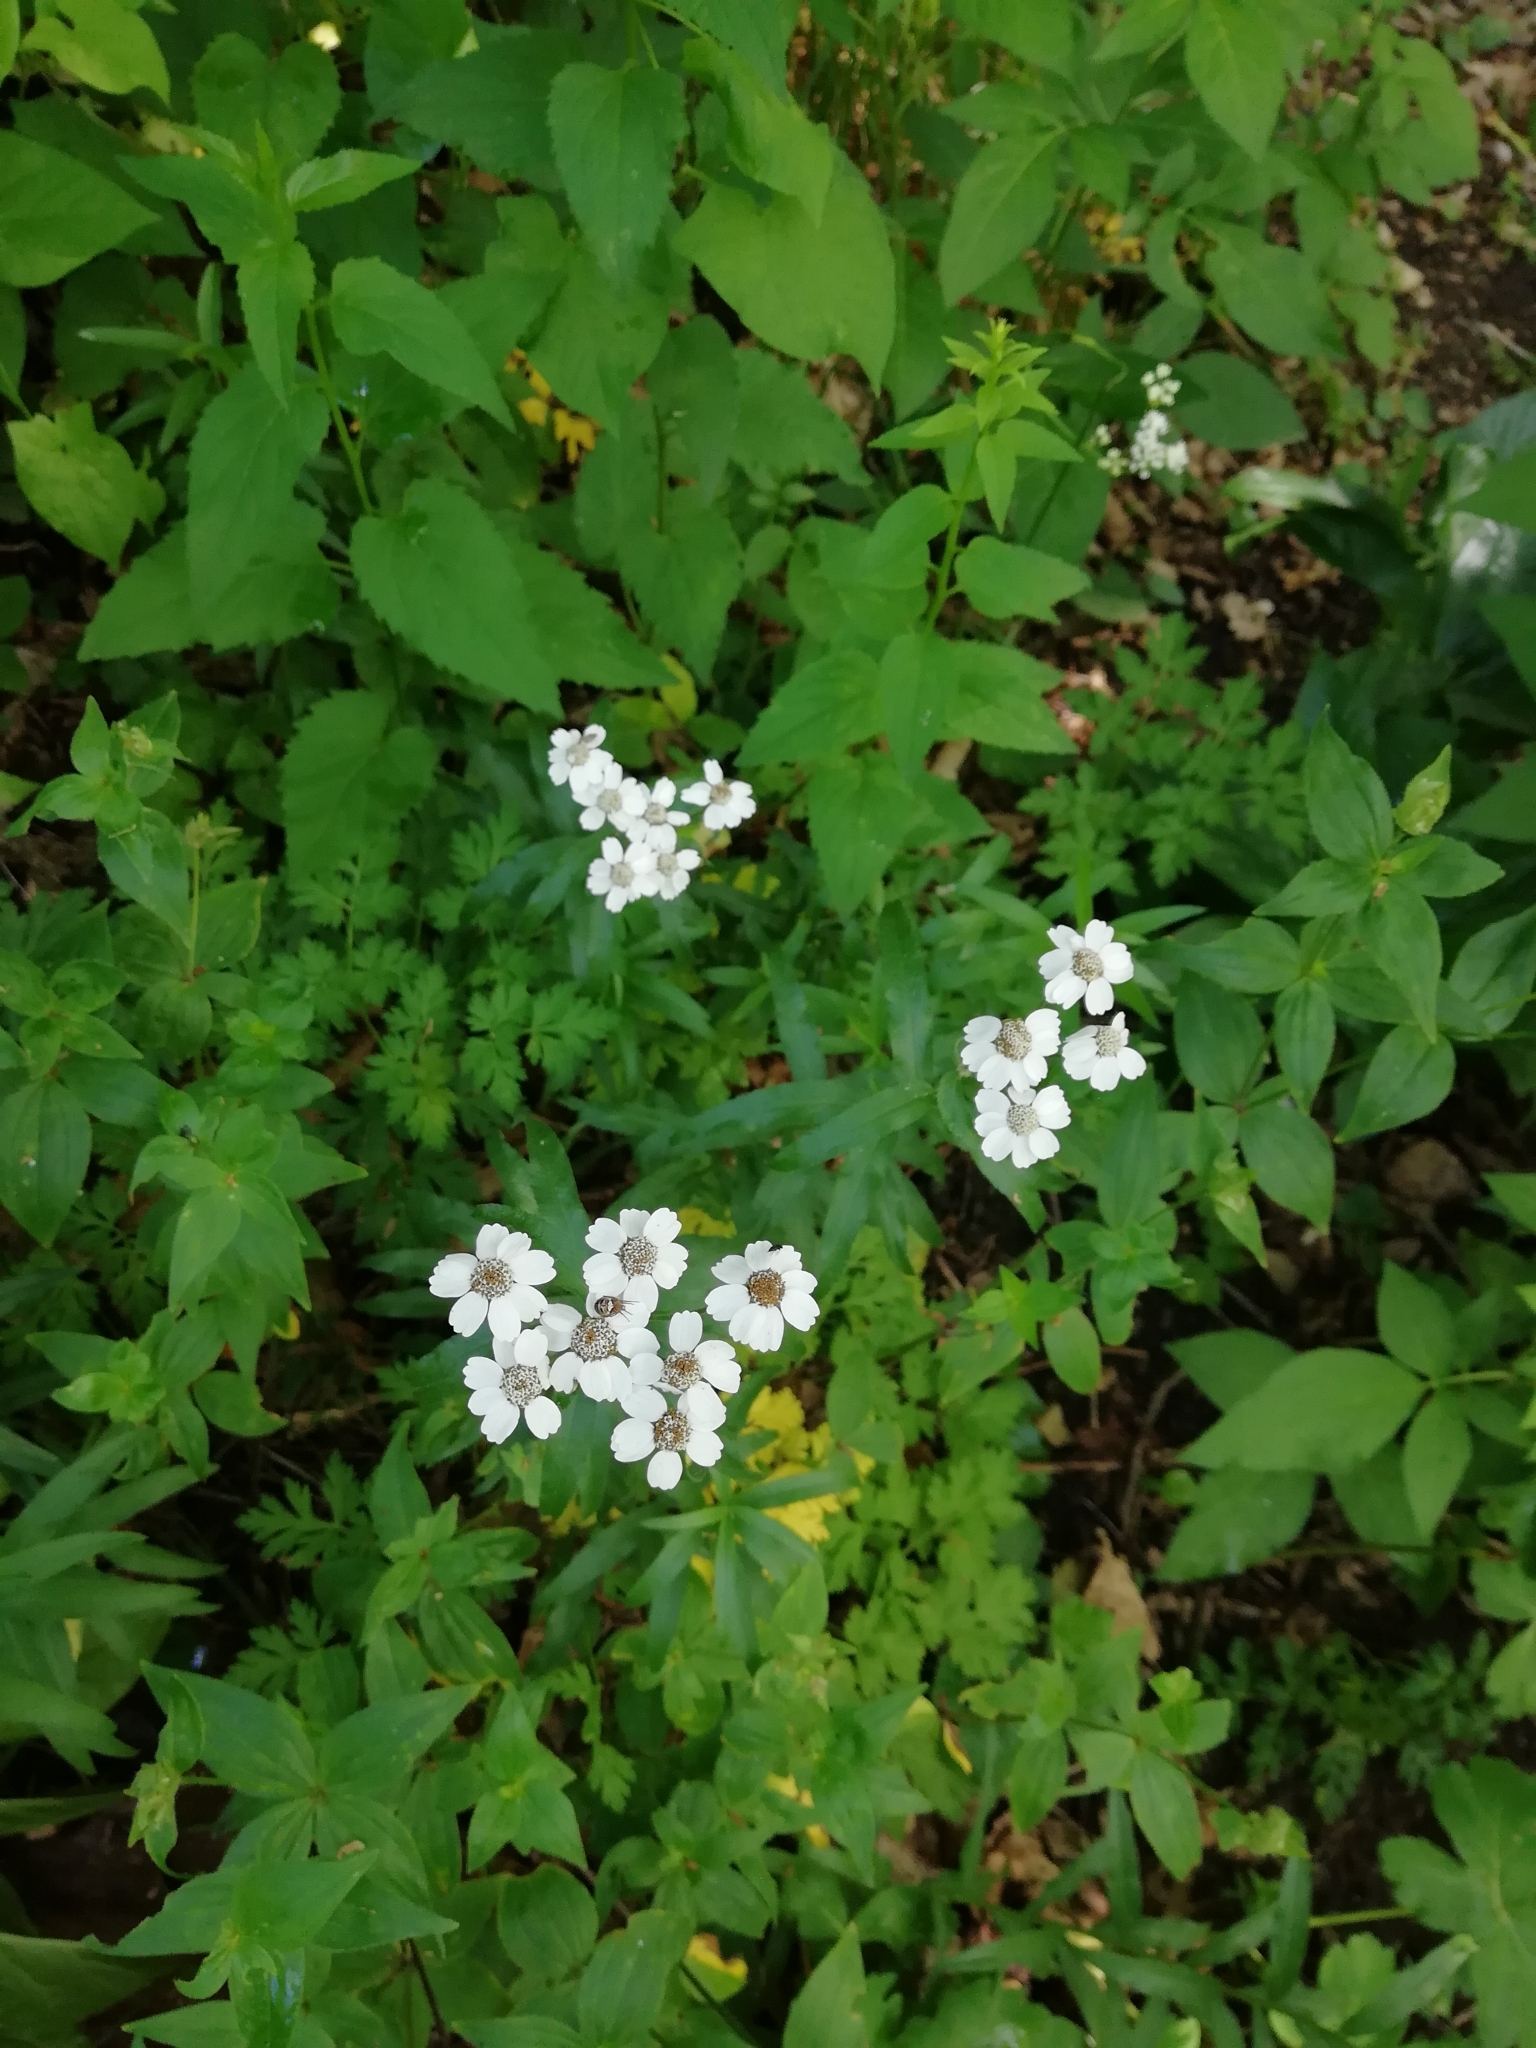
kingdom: Plantae
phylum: Tracheophyta
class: Magnoliopsida
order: Asterales
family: Asteraceae
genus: Achillea
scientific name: Achillea biserrata
